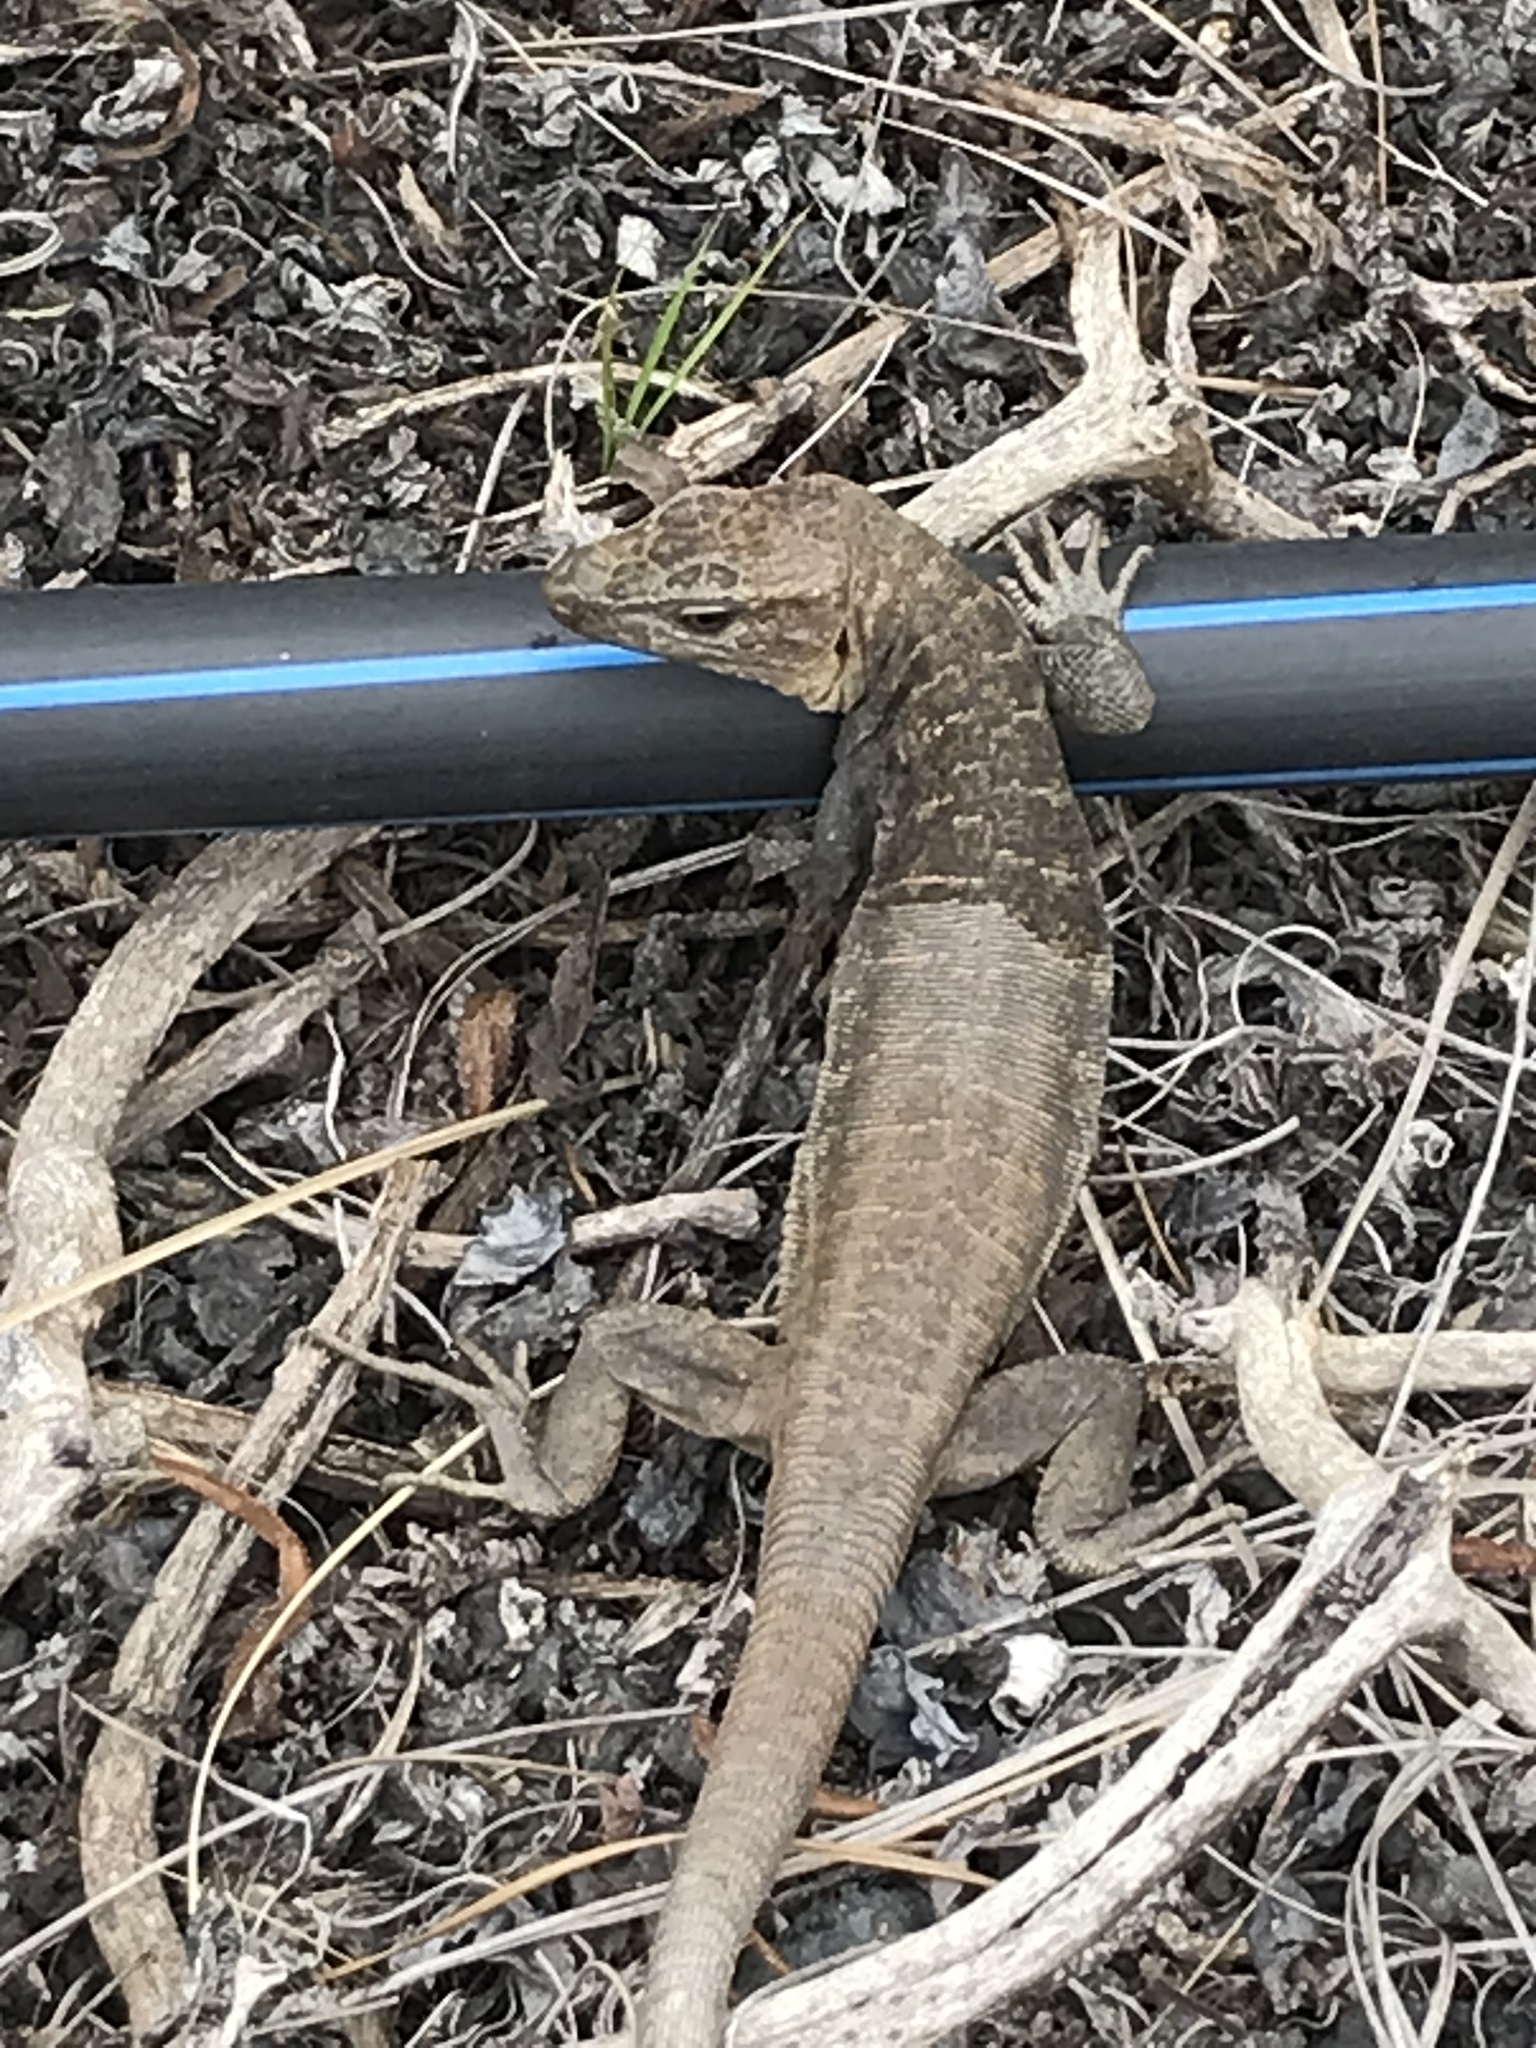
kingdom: Animalia
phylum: Chordata
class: Squamata
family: Lacertidae
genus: Gallotia
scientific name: Gallotia stehlini
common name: Gran canaria giant lizard
